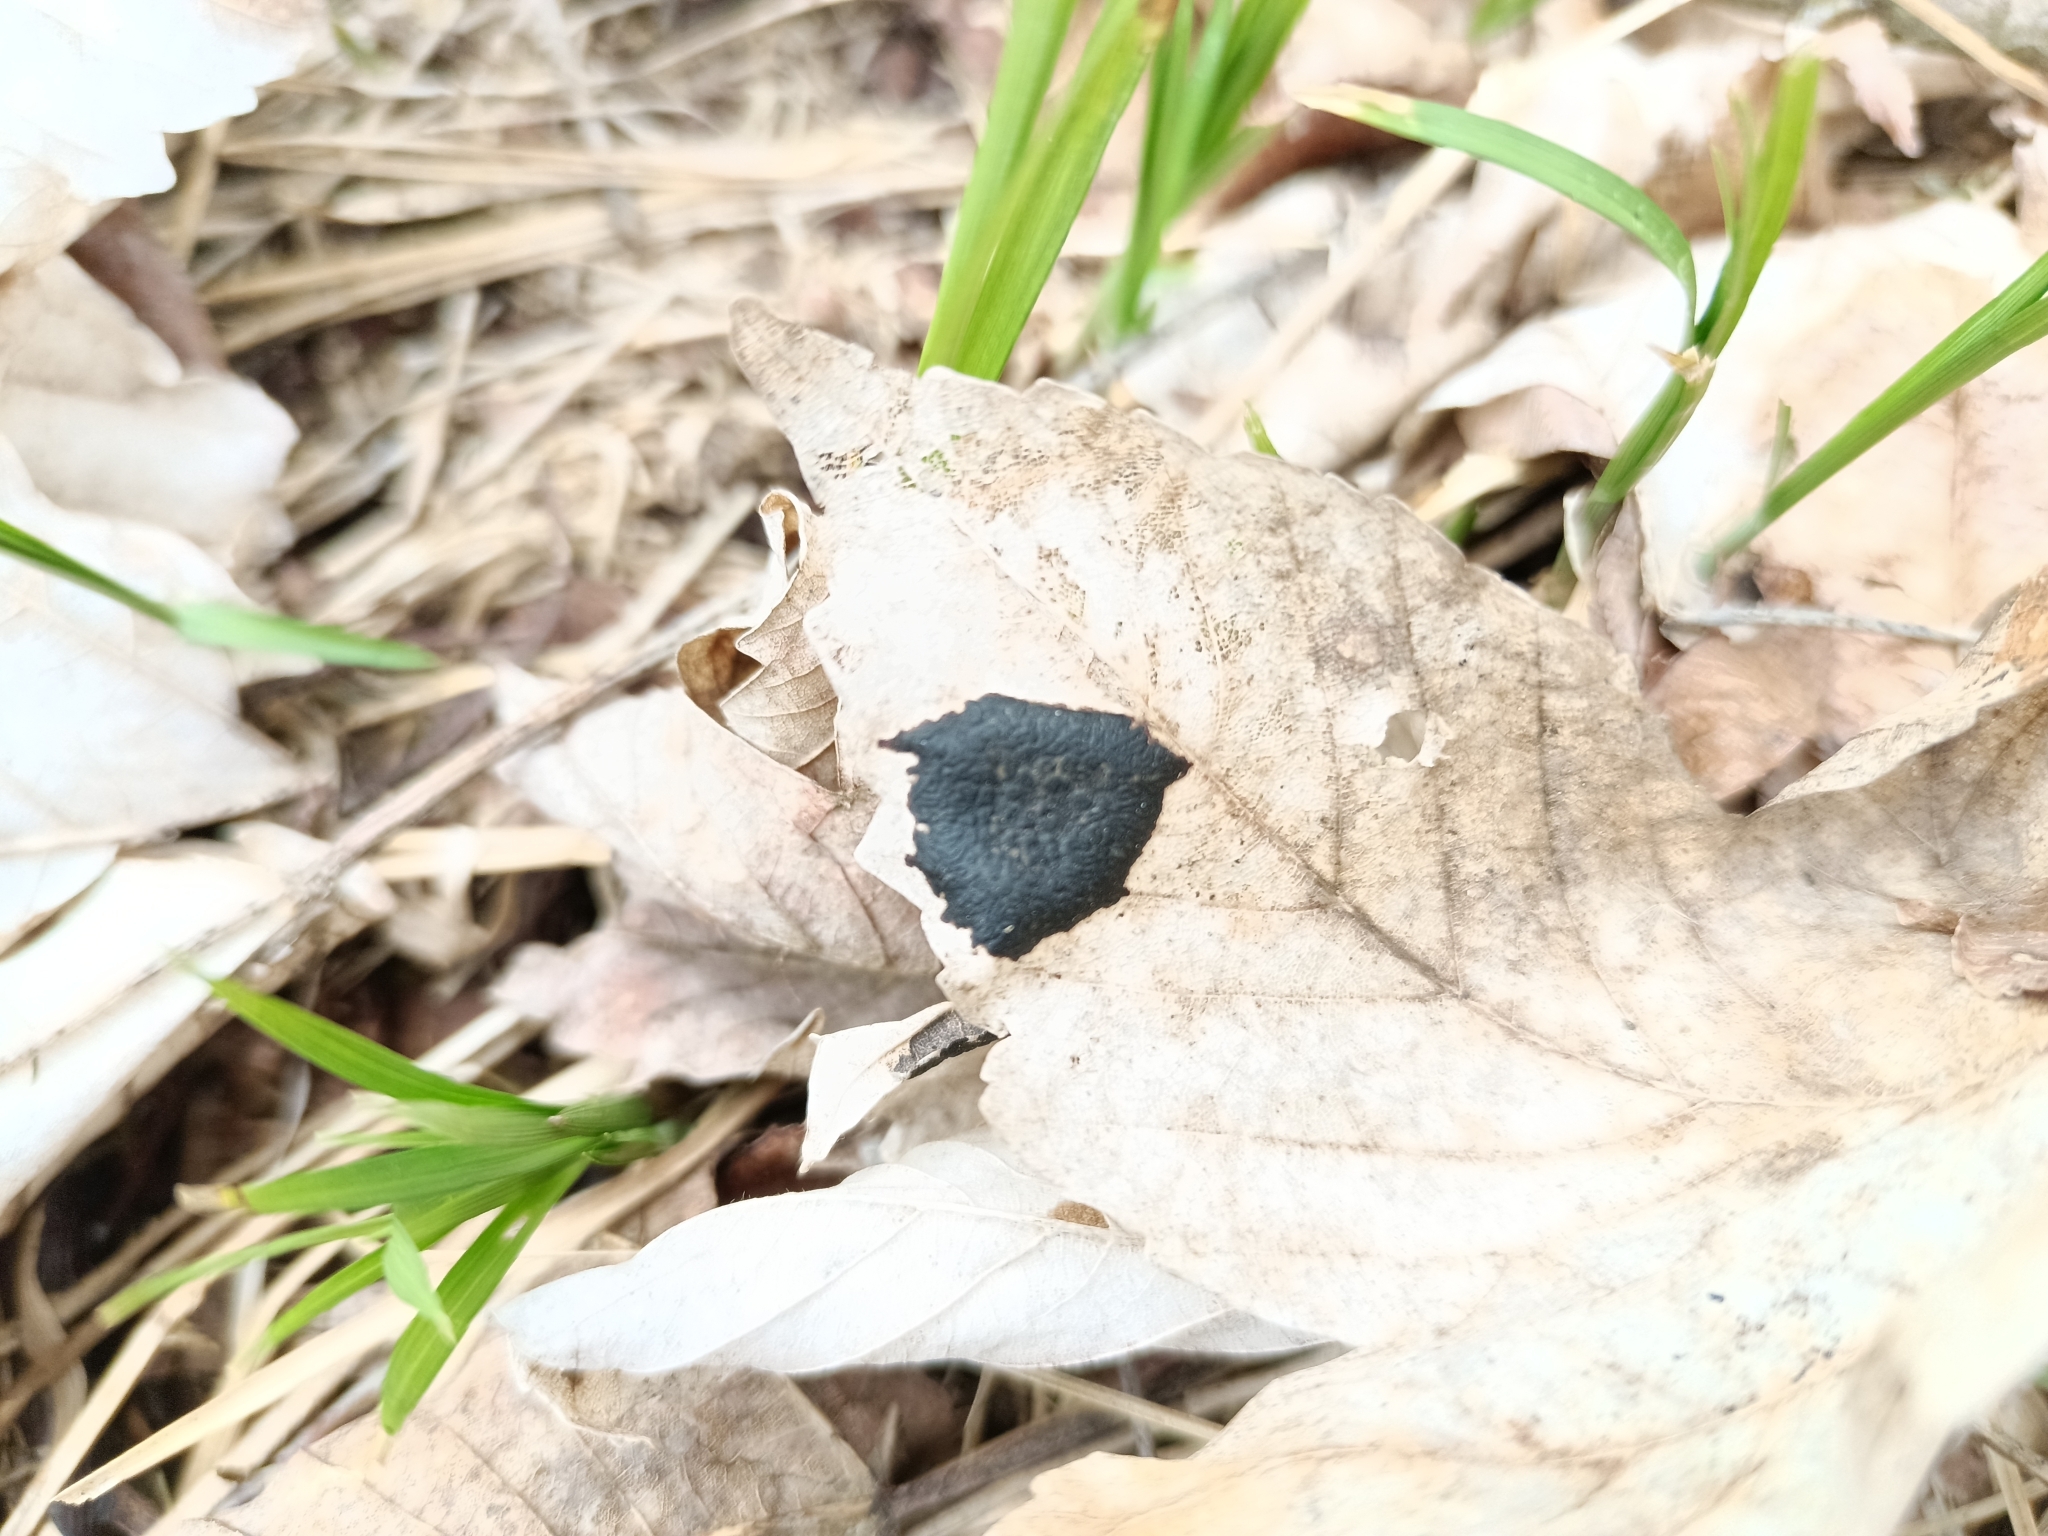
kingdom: Fungi
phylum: Ascomycota
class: Leotiomycetes
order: Rhytismatales
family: Rhytismataceae
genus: Rhytisma
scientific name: Rhytisma acerinum
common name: European tar spot
